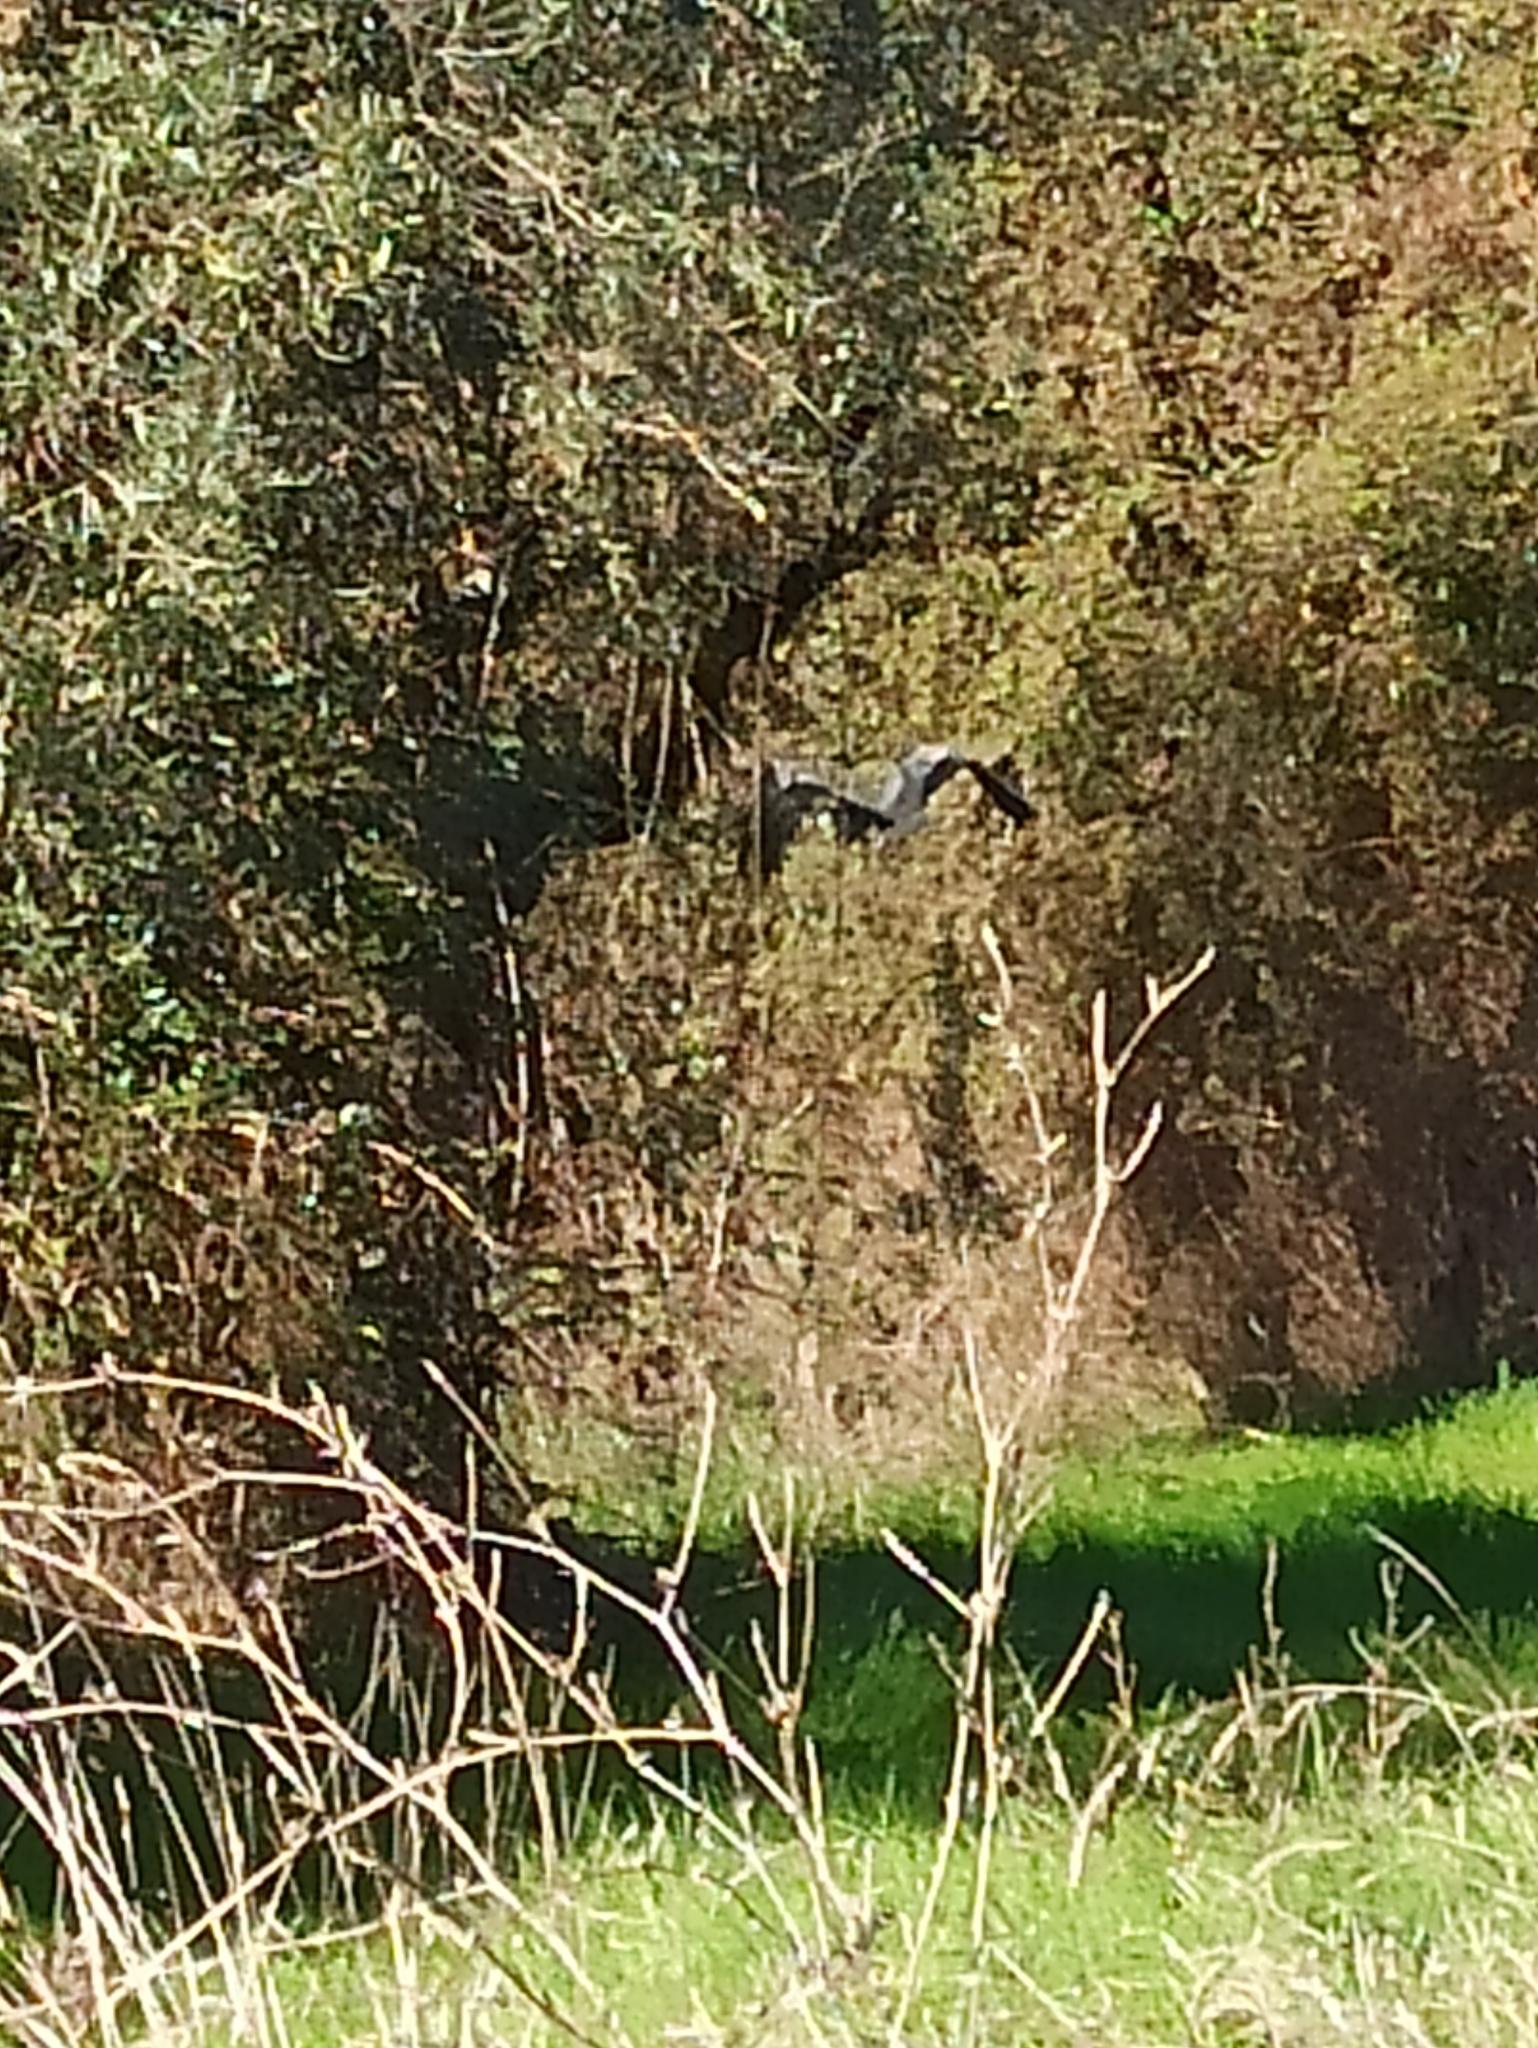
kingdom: Animalia
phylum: Chordata
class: Aves
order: Pelecaniformes
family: Ardeidae
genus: Ardea
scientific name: Ardea cinerea
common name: Grey heron
